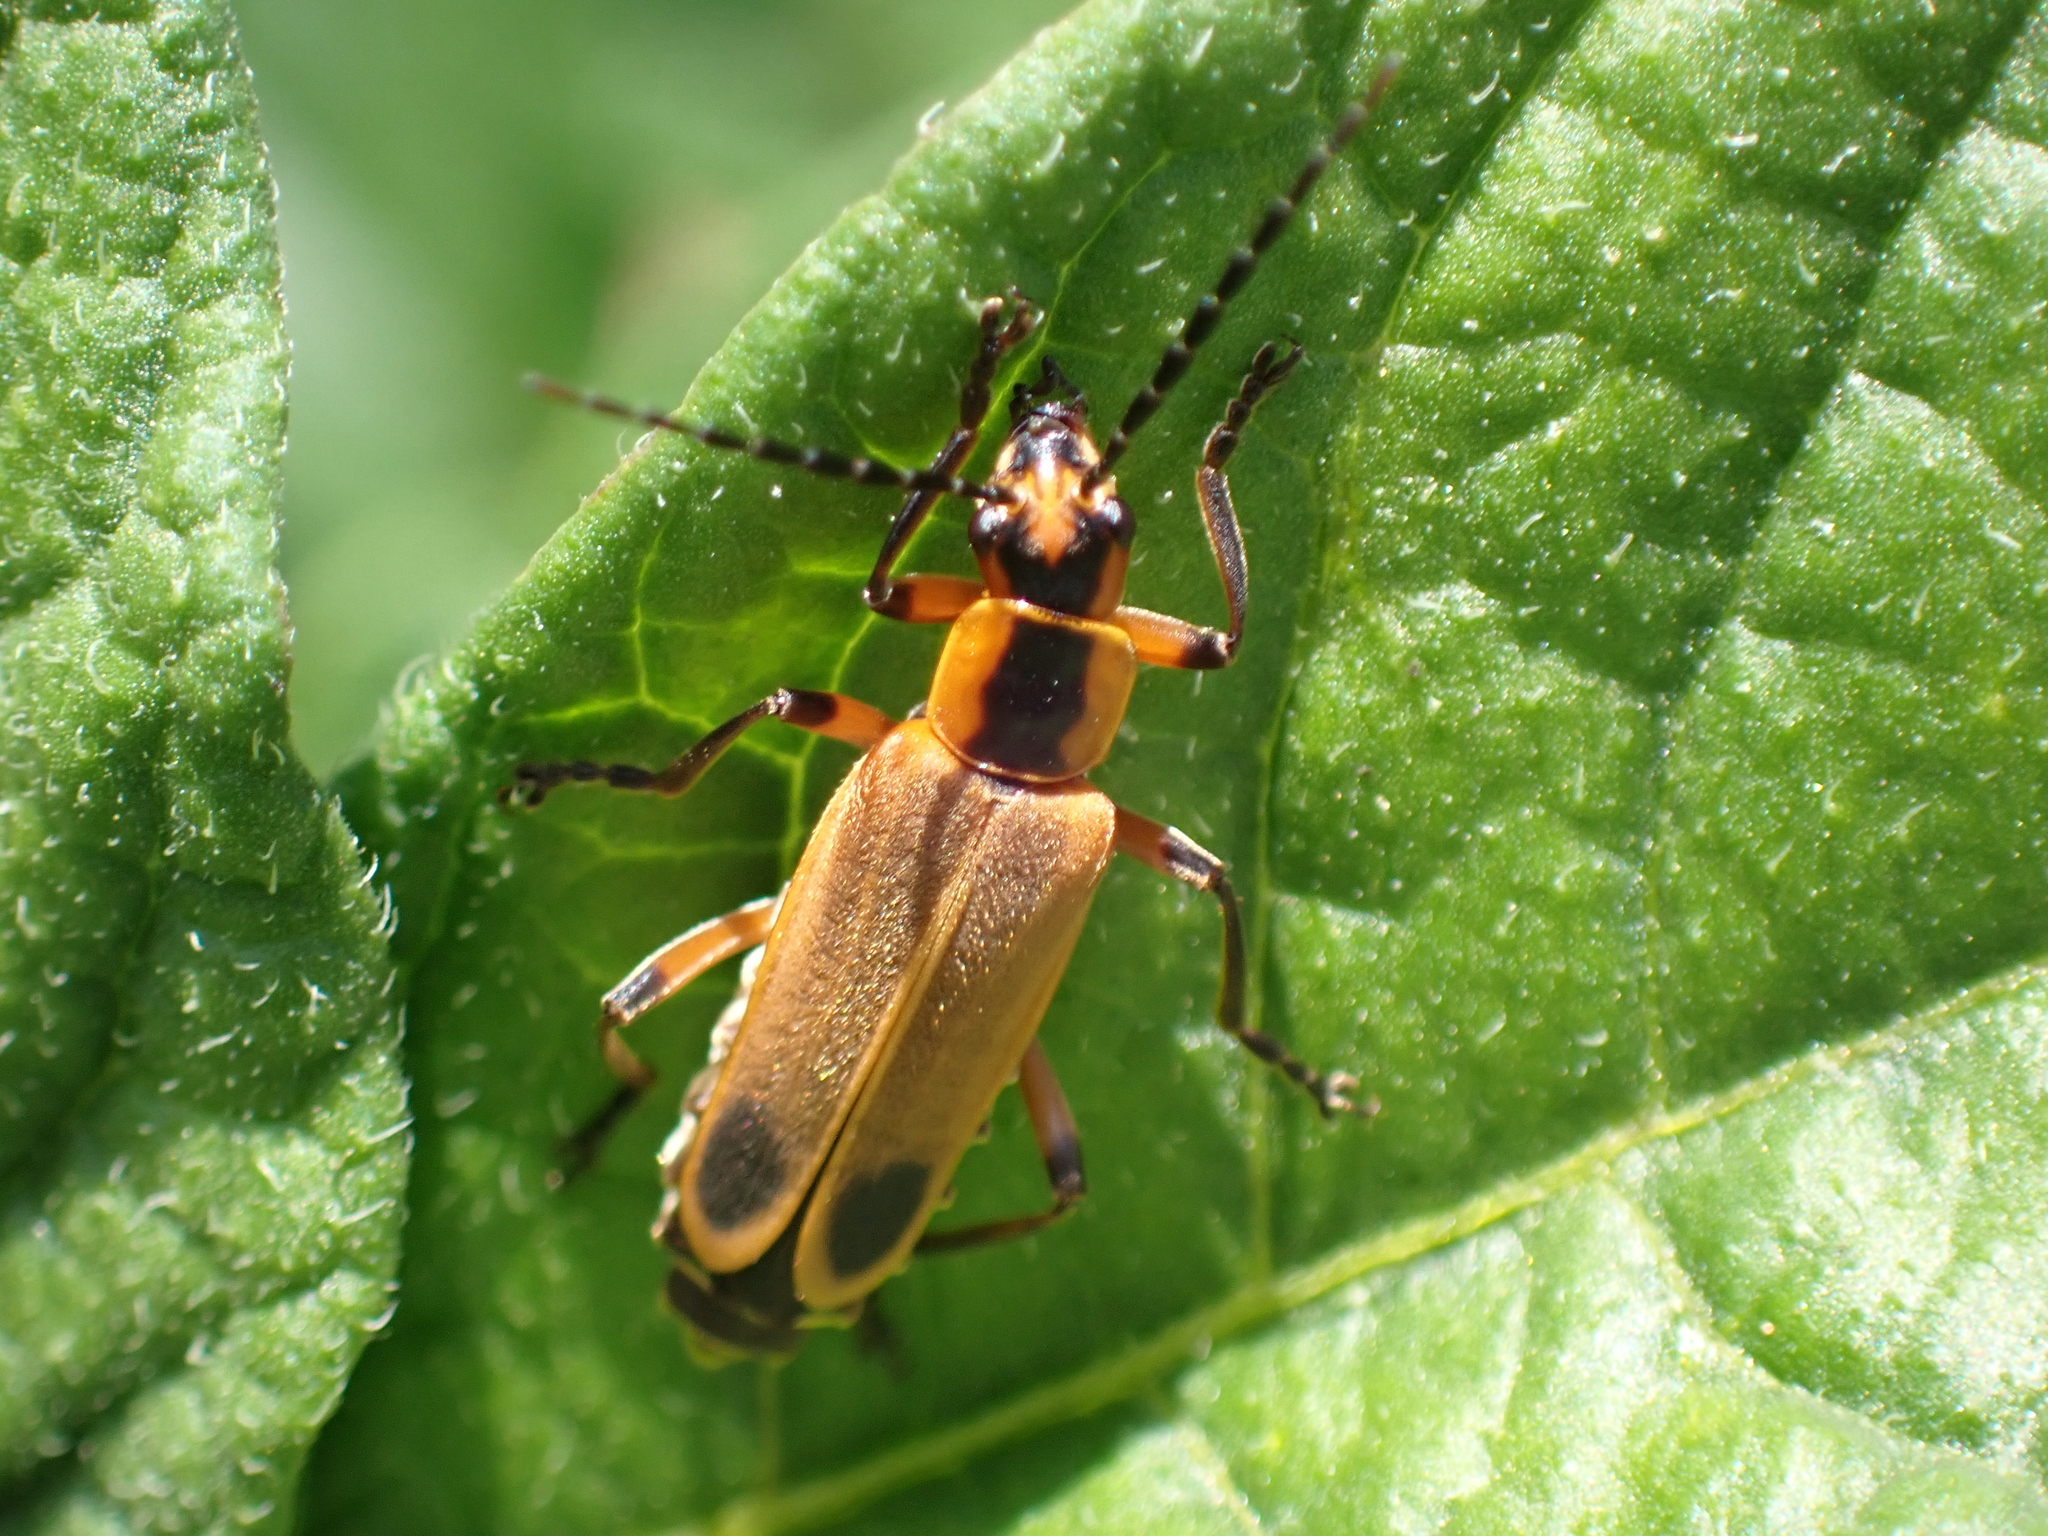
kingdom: Animalia
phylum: Arthropoda
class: Insecta
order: Coleoptera
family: Cantharidae
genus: Chauliognathus
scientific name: Chauliognathus marginatus
